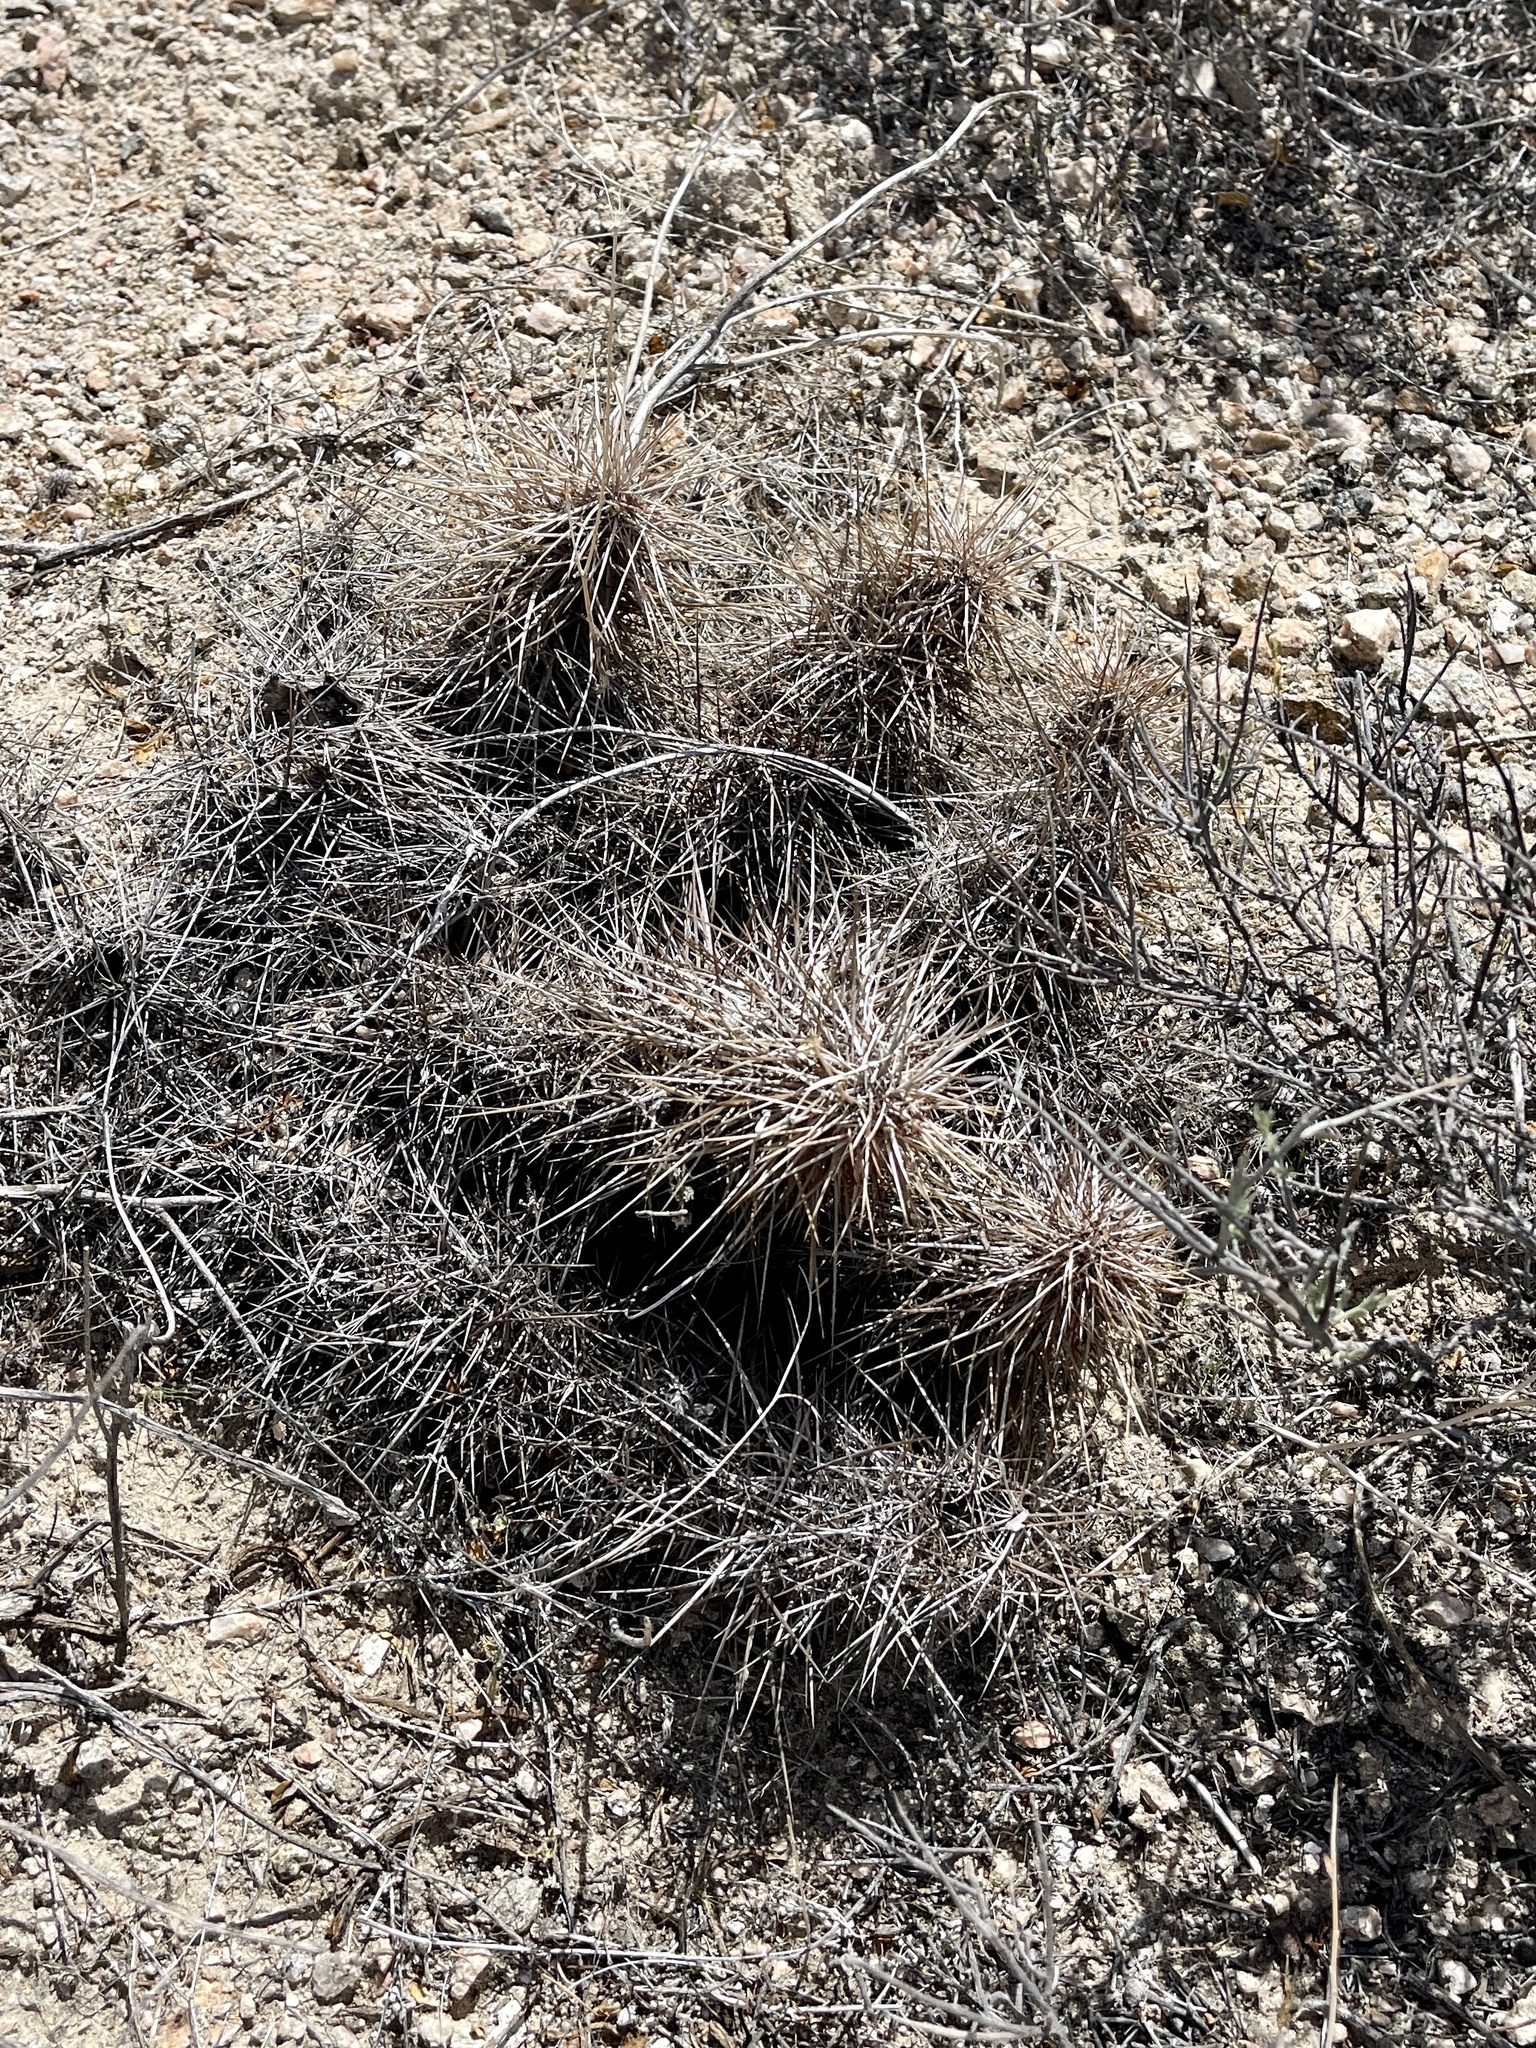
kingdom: Plantae
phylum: Tracheophyta
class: Magnoliopsida
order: Caryophyllales
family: Cactaceae
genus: Echinocereus
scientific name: Echinocereus engelmannii
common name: Engelmann's hedgehog cactus
